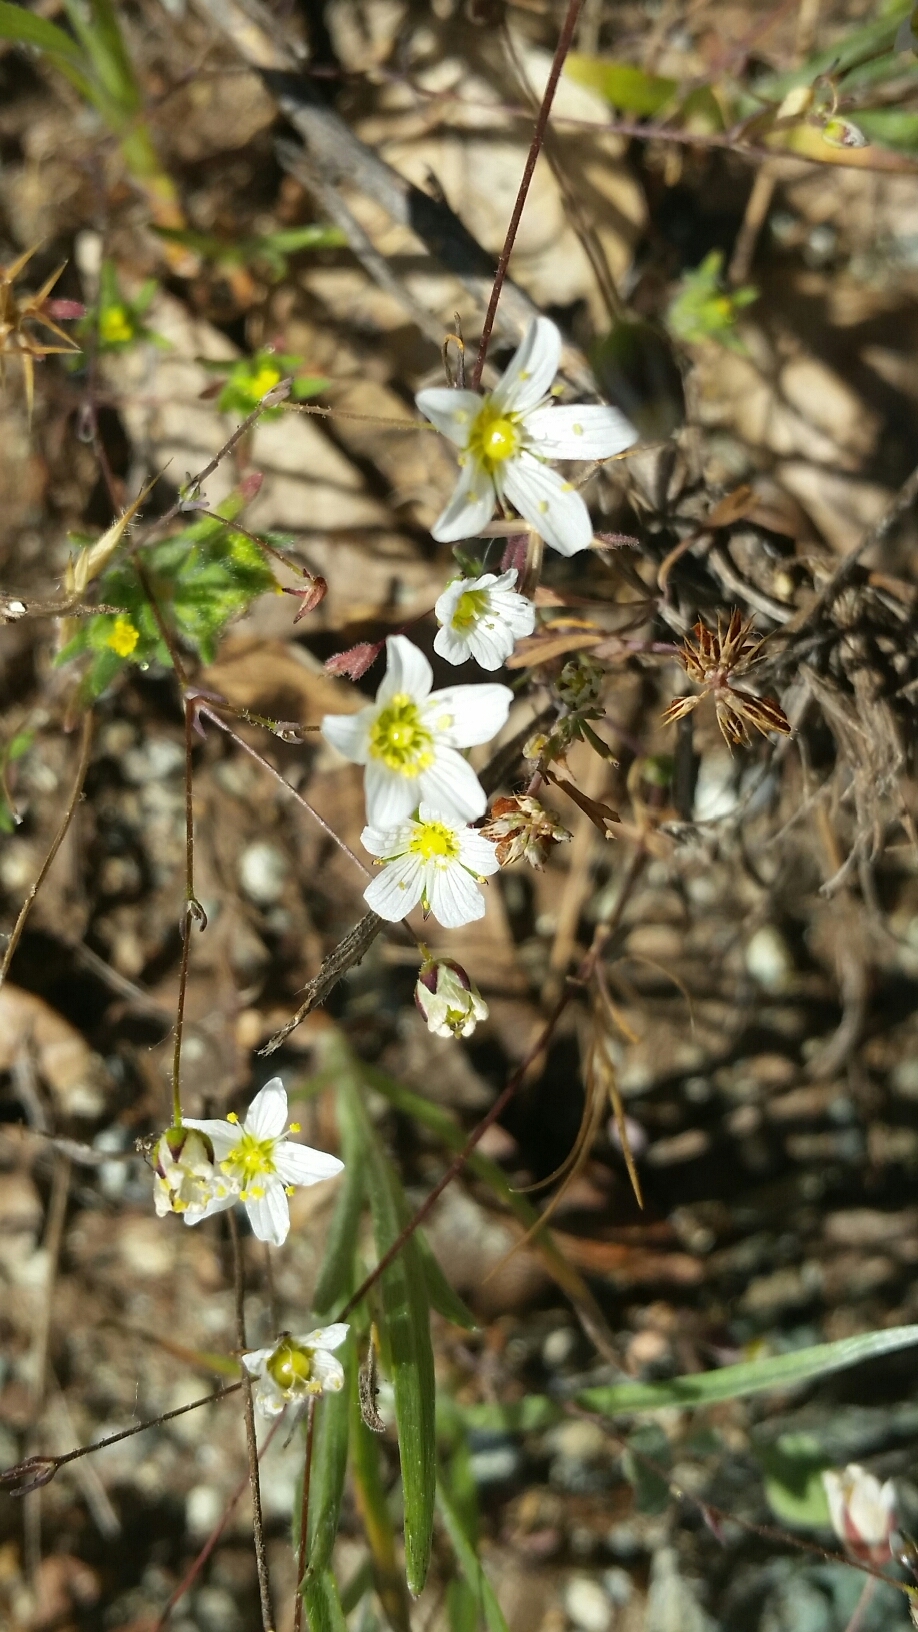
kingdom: Plantae
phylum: Tracheophyta
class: Magnoliopsida
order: Caryophyllales
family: Caryophyllaceae
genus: Sabulina
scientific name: Sabulina douglasii
